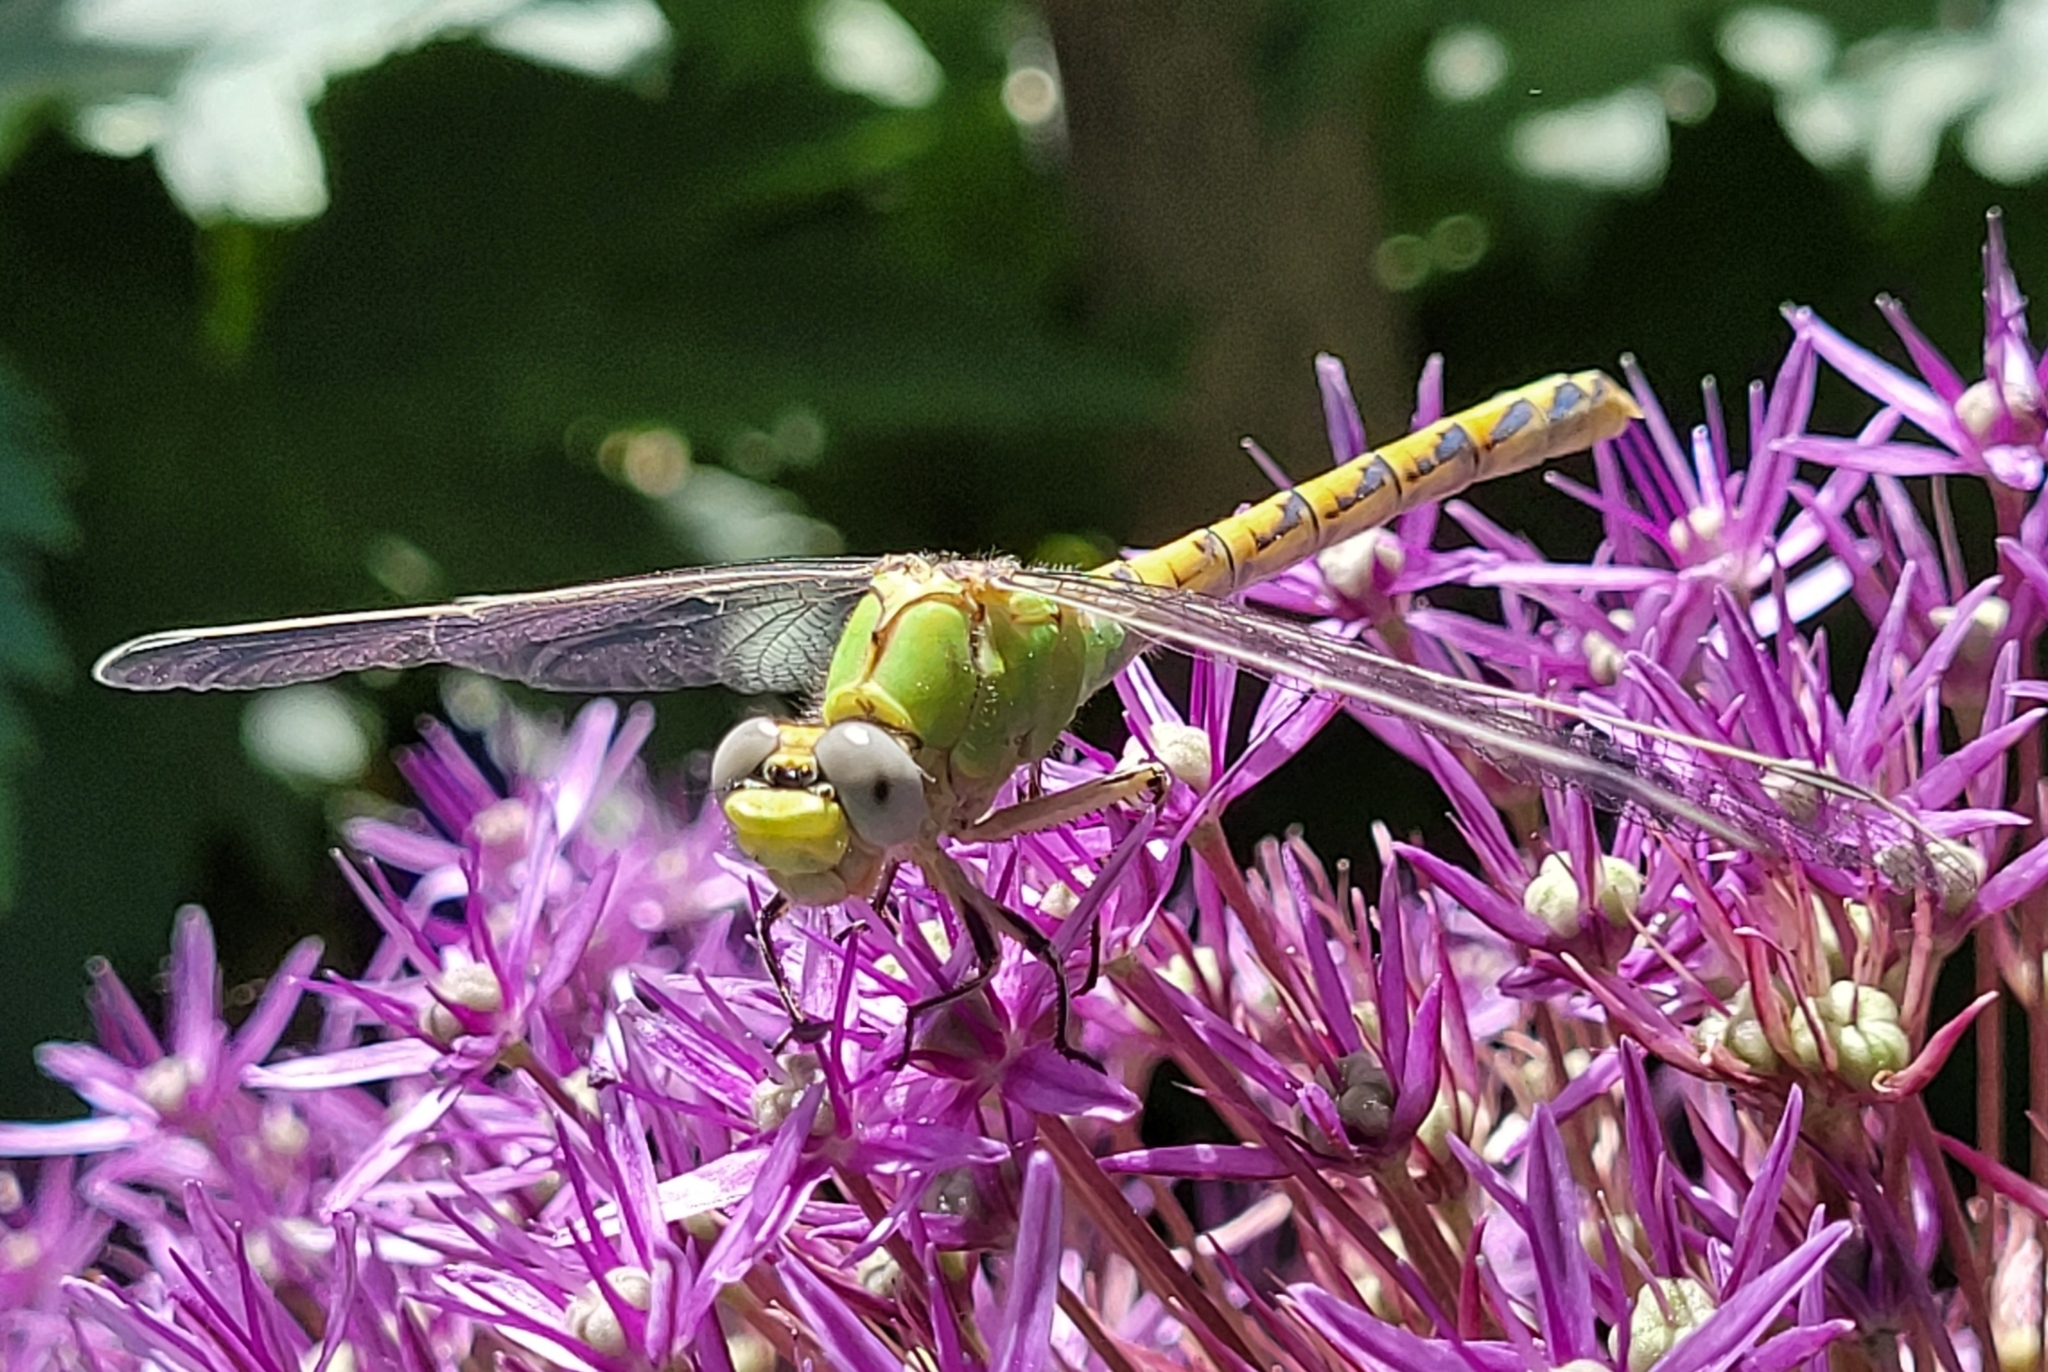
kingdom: Animalia
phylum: Arthropoda
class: Insecta
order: Odonata
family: Gomphidae
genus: Ophiogomphus
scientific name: Ophiogomphus severus
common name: Pale snaketail
